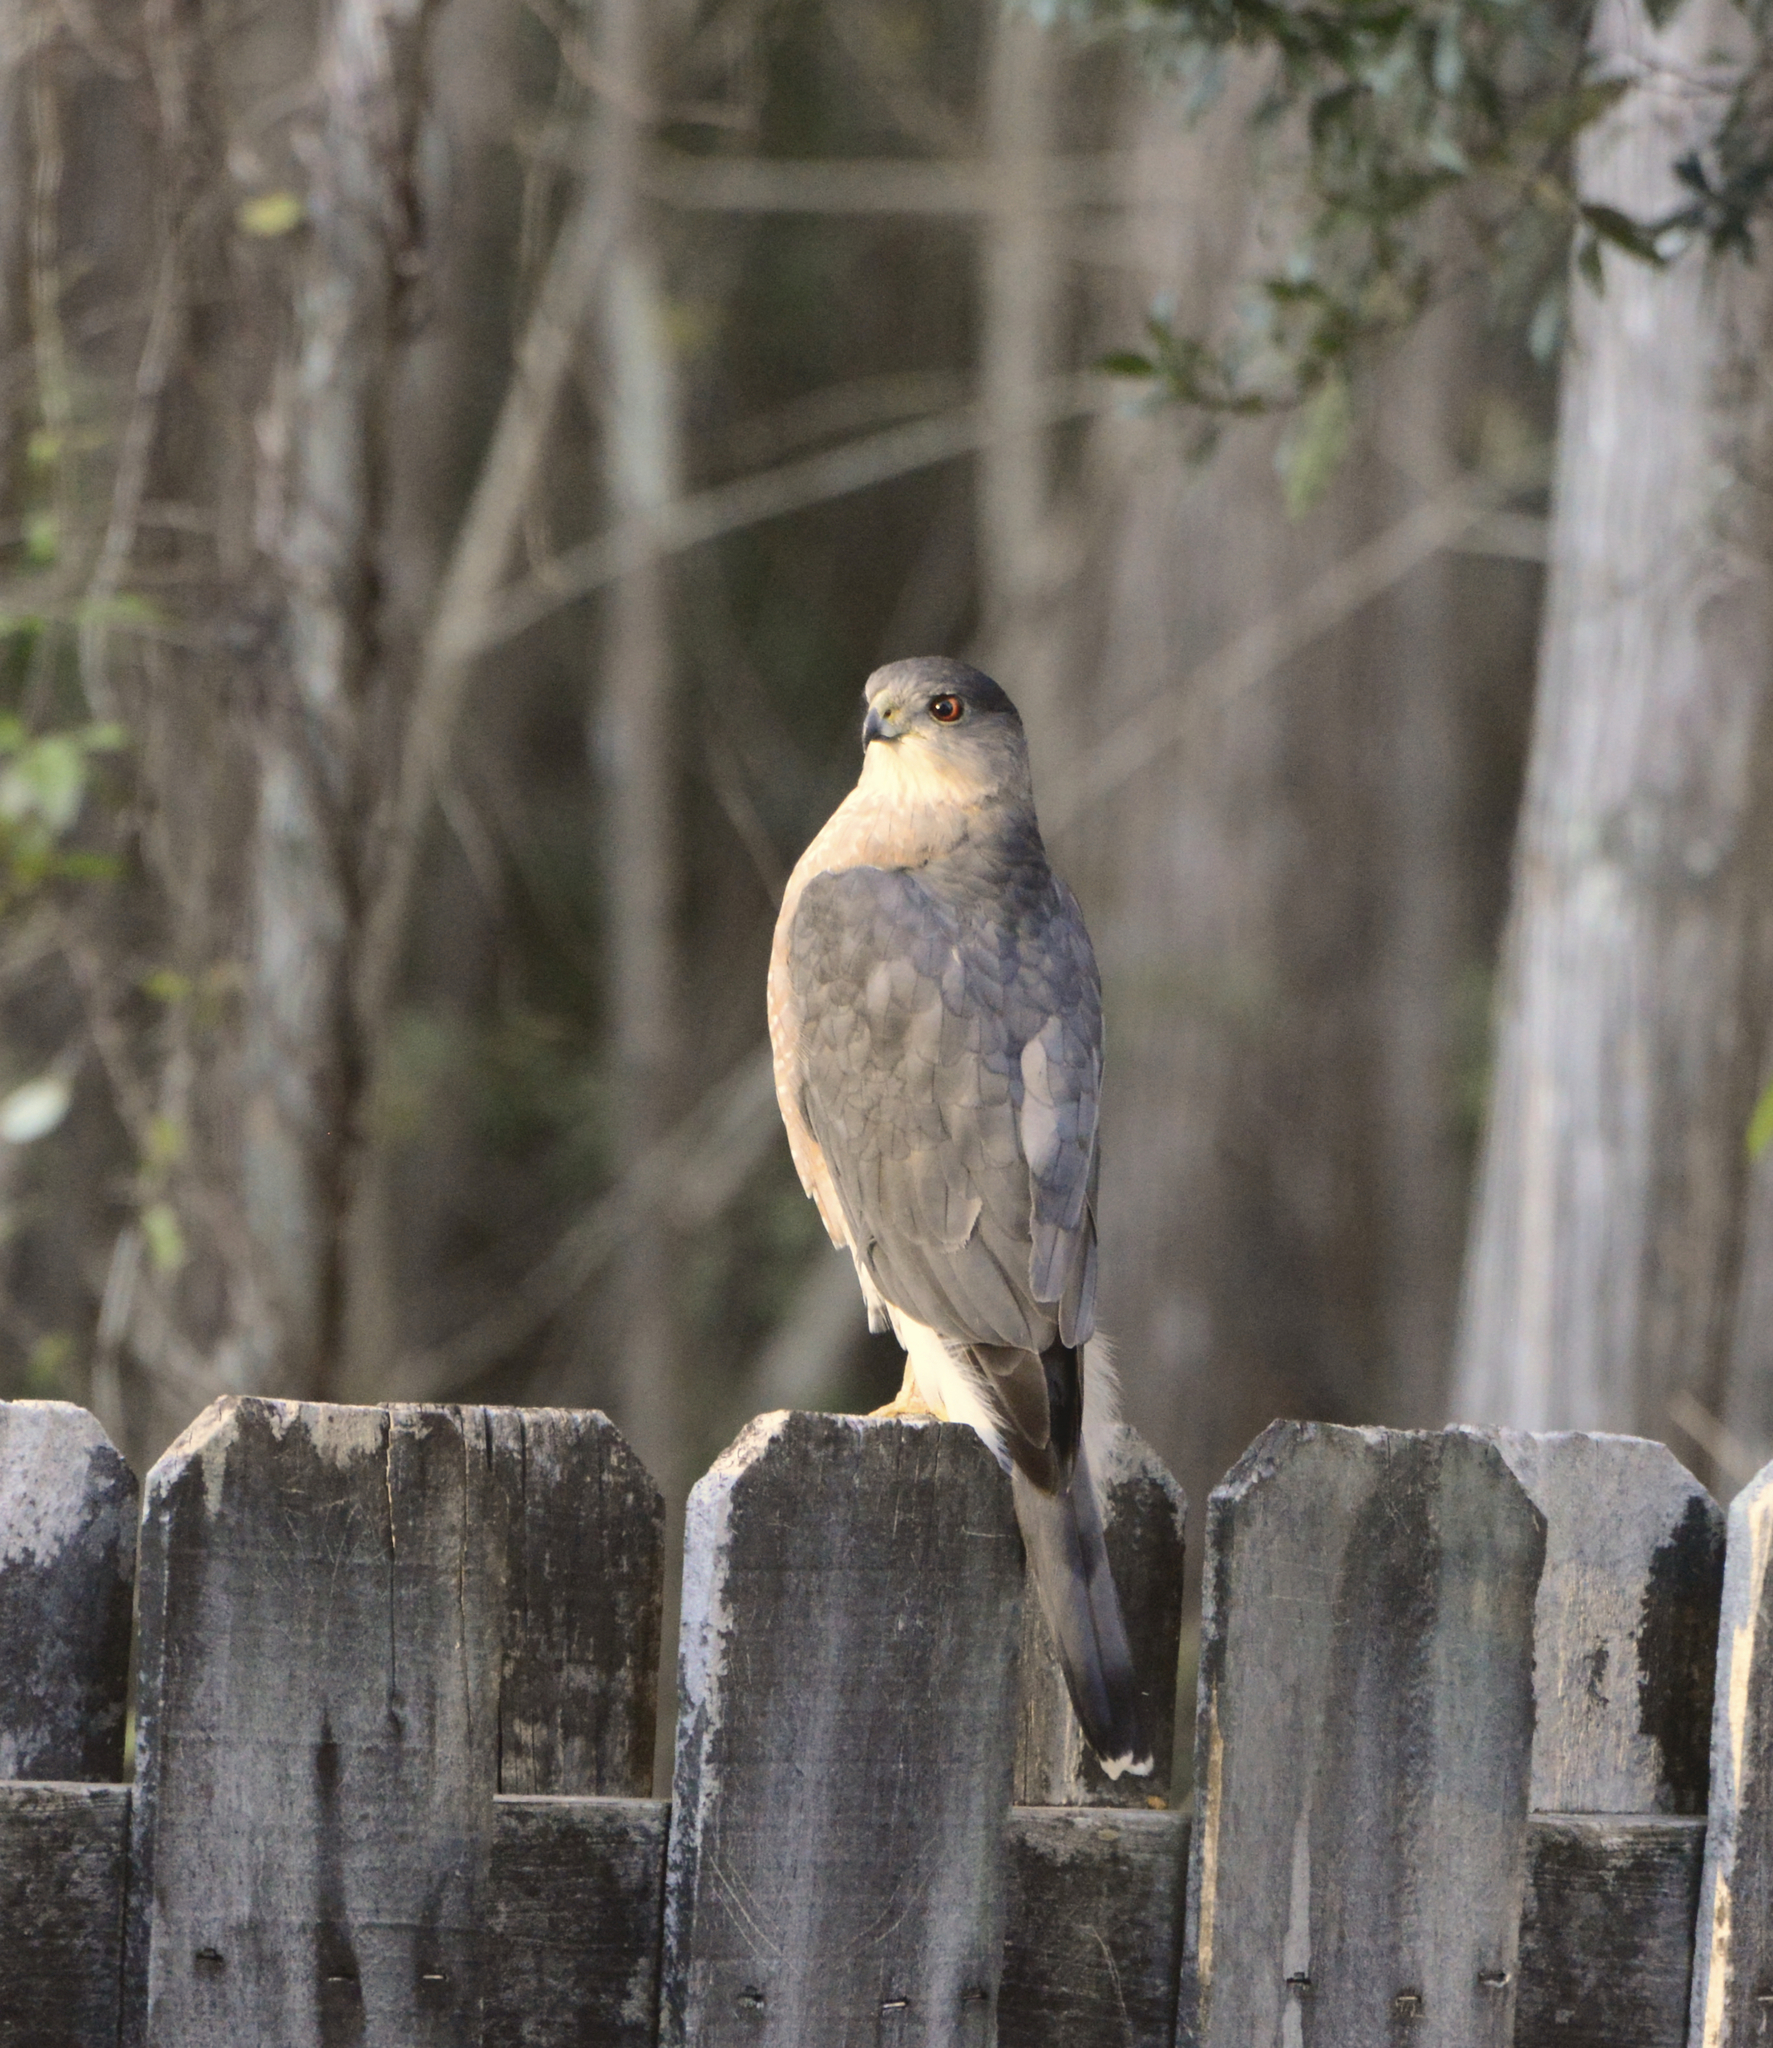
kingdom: Animalia
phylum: Chordata
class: Aves
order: Accipitriformes
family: Accipitridae
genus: Accipiter
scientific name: Accipiter cooperii
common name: Cooper's hawk
